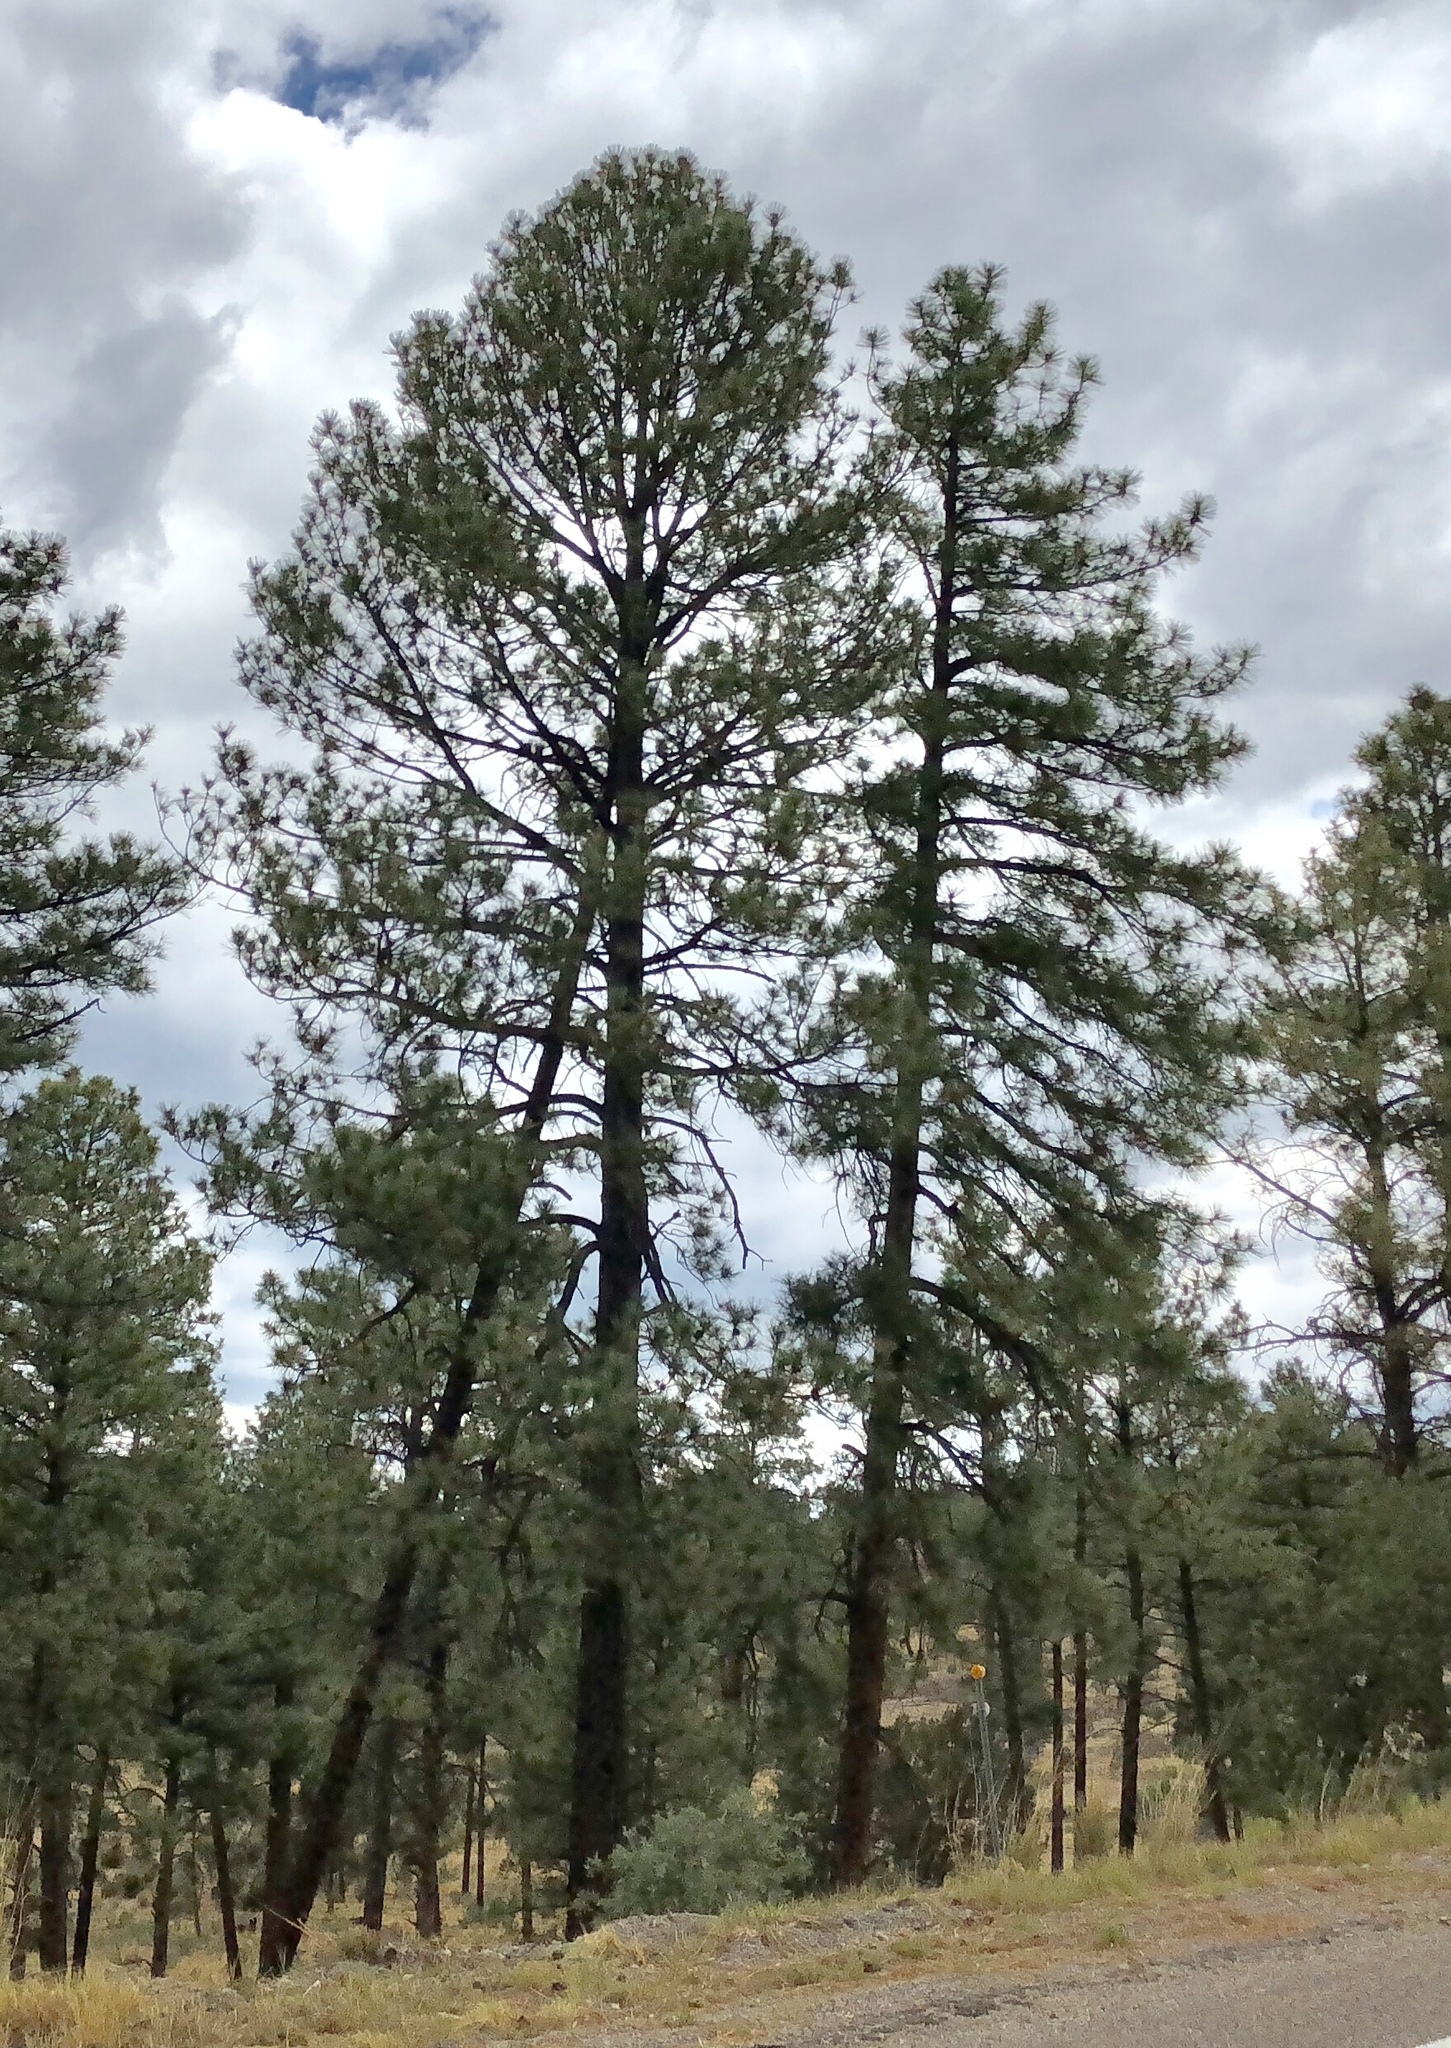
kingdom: Plantae
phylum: Tracheophyta
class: Pinopsida
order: Pinales
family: Pinaceae
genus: Pinus
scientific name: Pinus ponderosa
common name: Western yellow-pine
